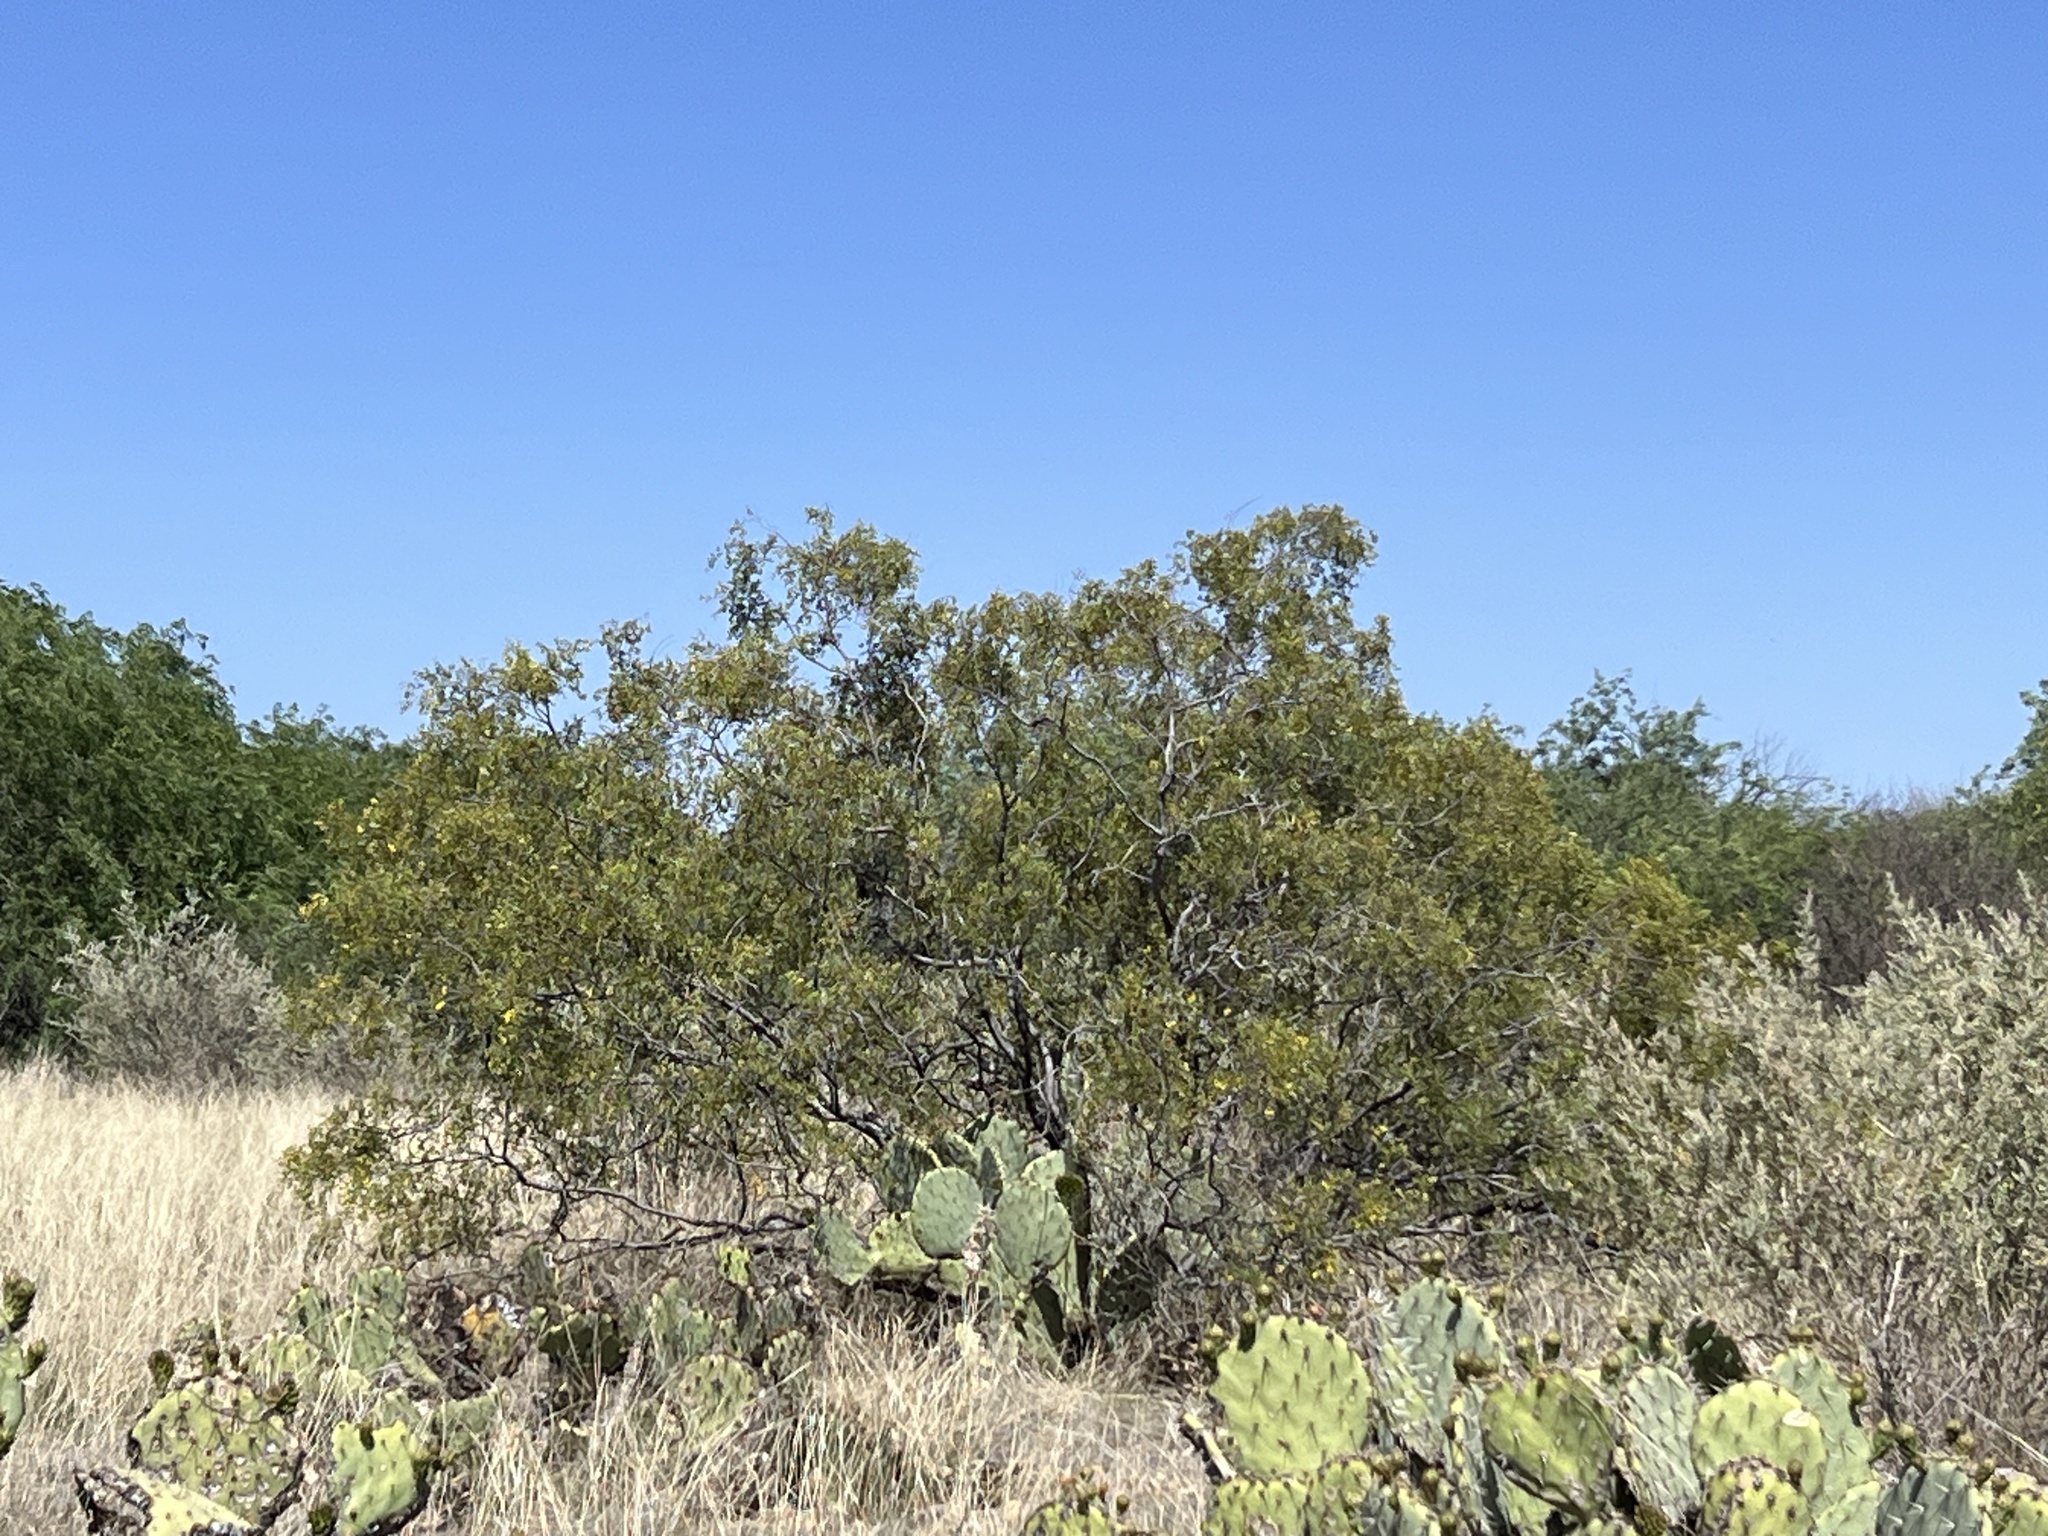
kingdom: Plantae
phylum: Tracheophyta
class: Magnoliopsida
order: Zygophyllales
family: Zygophyllaceae
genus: Larrea
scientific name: Larrea tridentata
